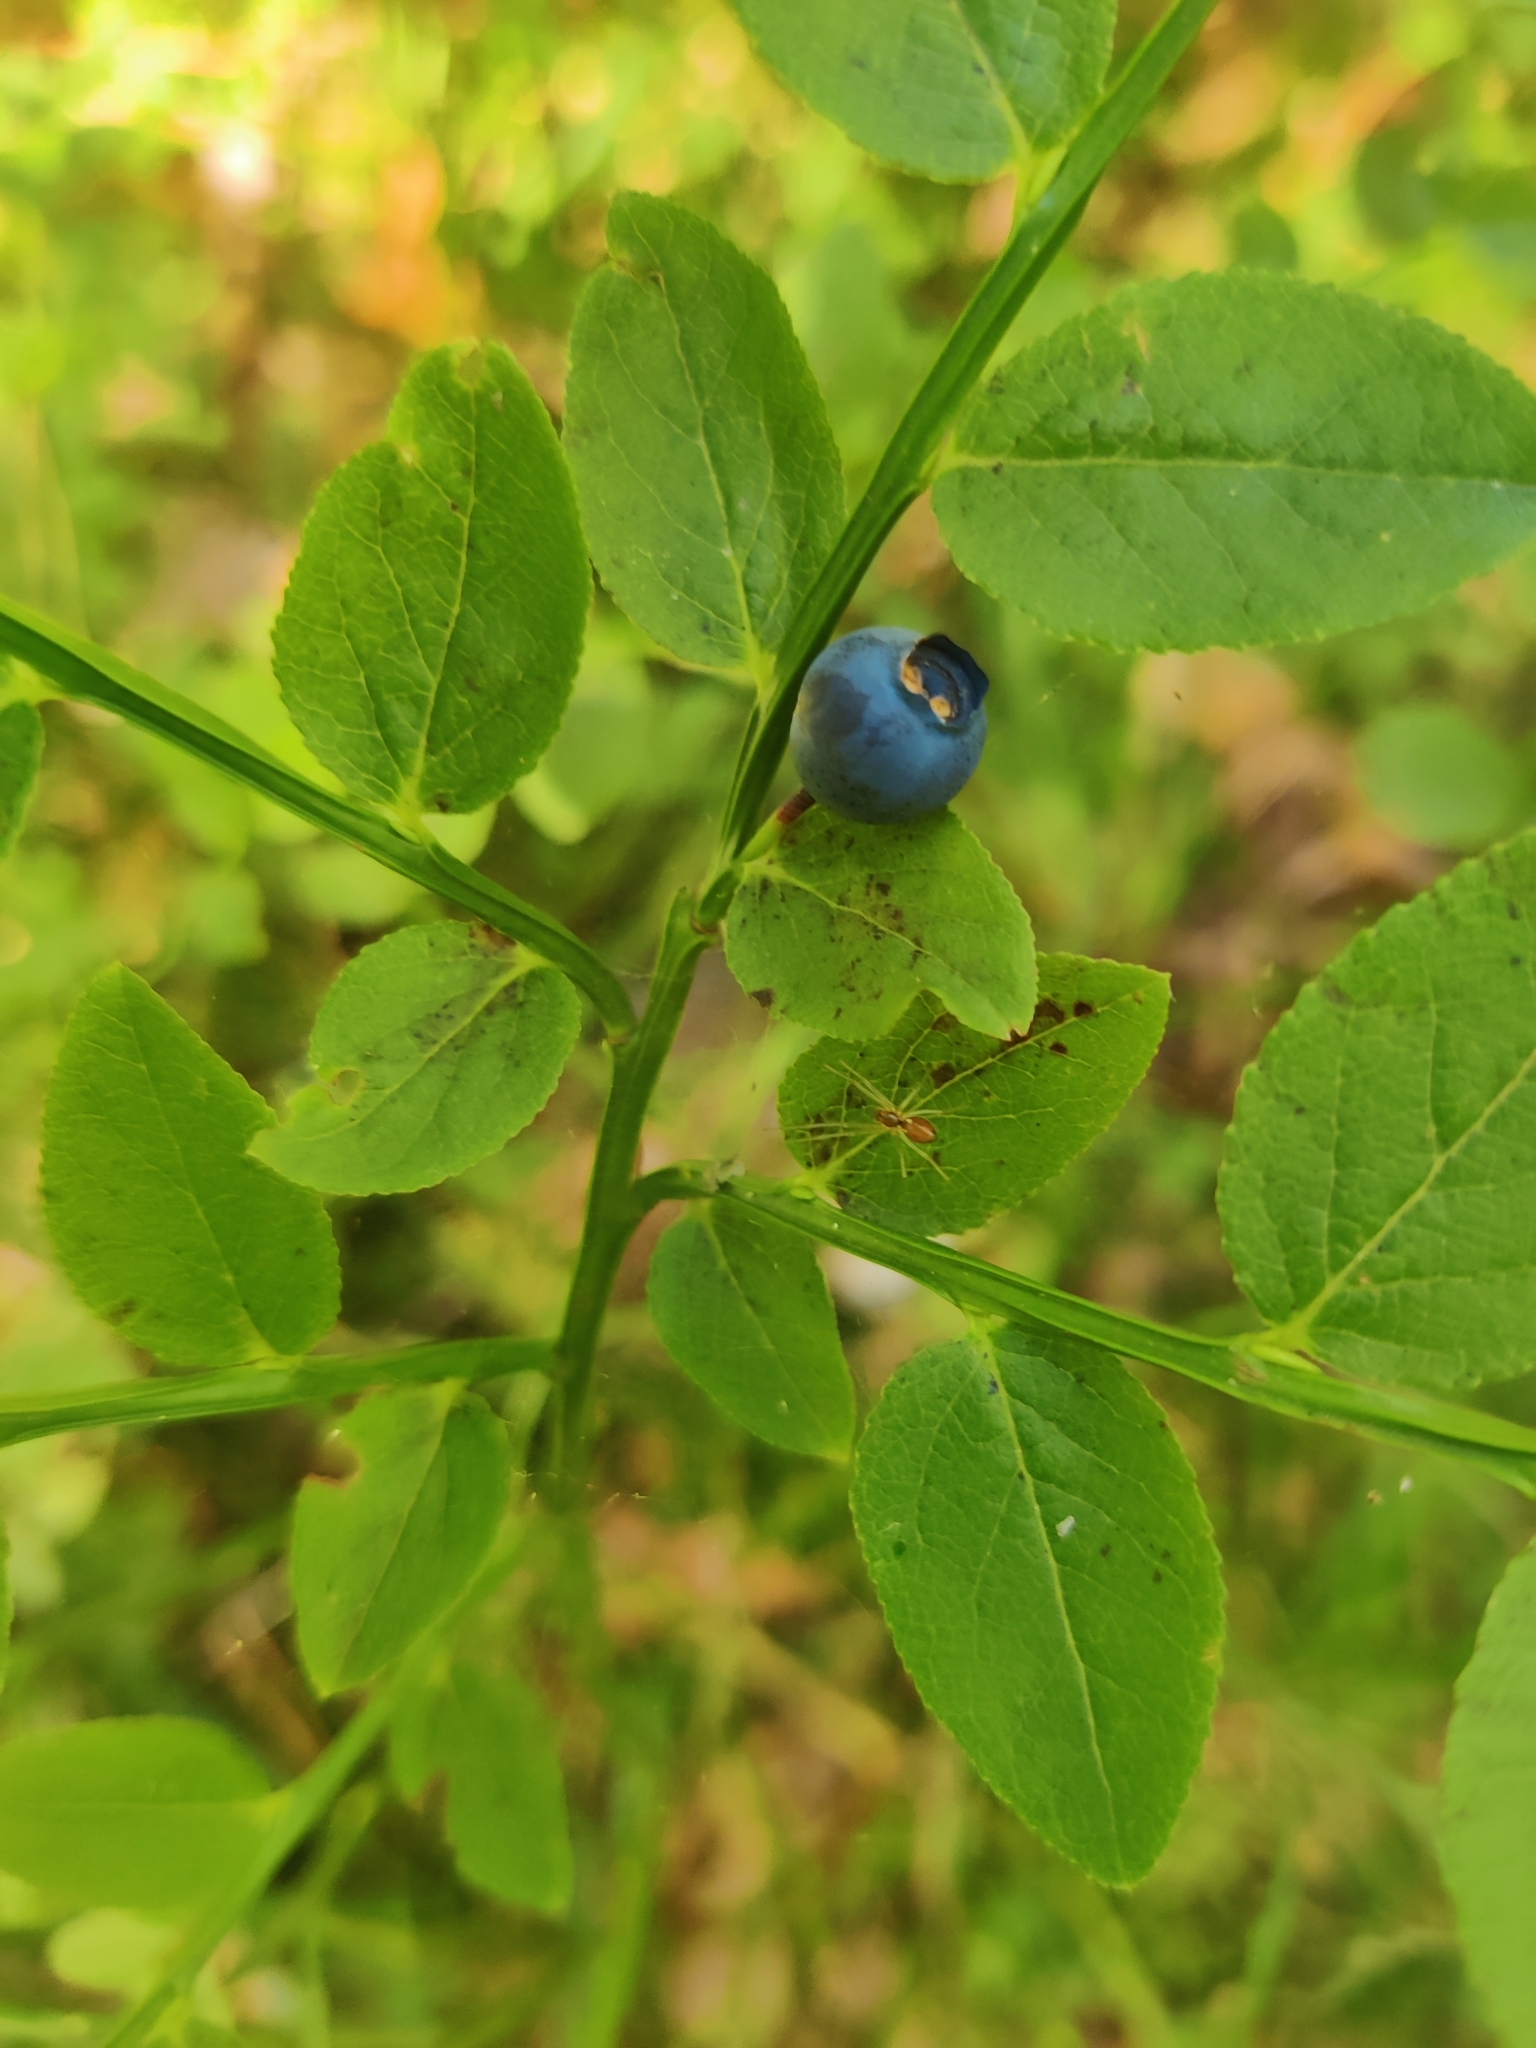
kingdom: Plantae
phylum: Tracheophyta
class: Magnoliopsida
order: Ericales
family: Ericaceae
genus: Vaccinium
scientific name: Vaccinium myrtillus
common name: Bilberry
